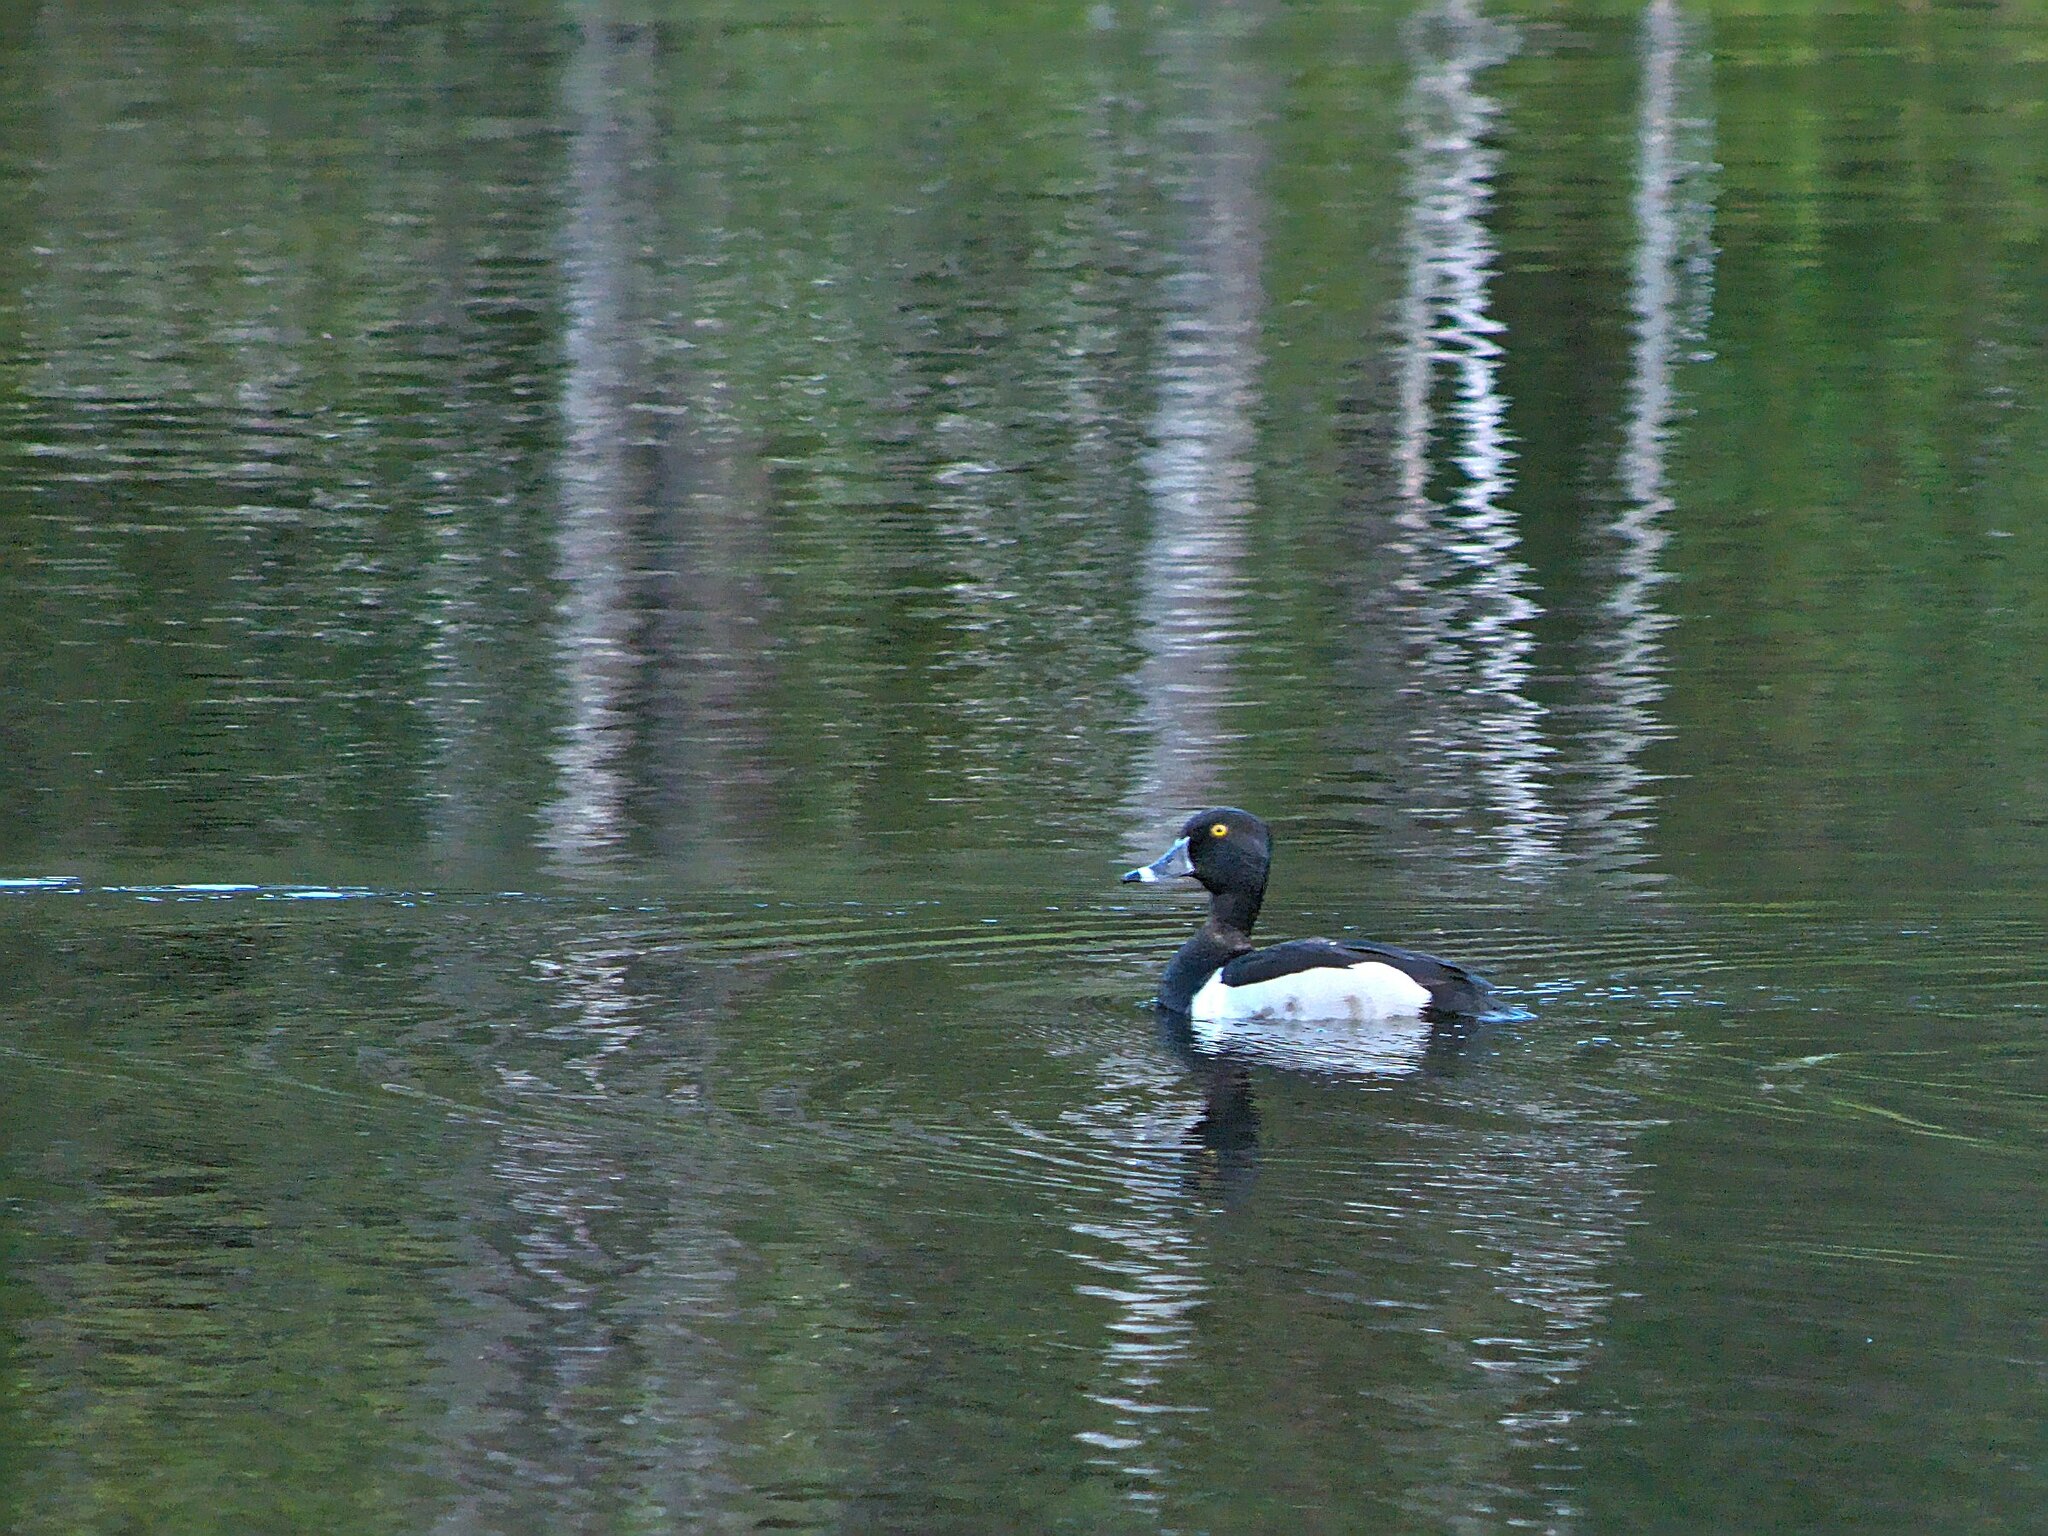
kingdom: Animalia
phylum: Chordata
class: Aves
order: Anseriformes
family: Anatidae
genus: Aythya
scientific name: Aythya collaris
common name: Ring-necked duck
